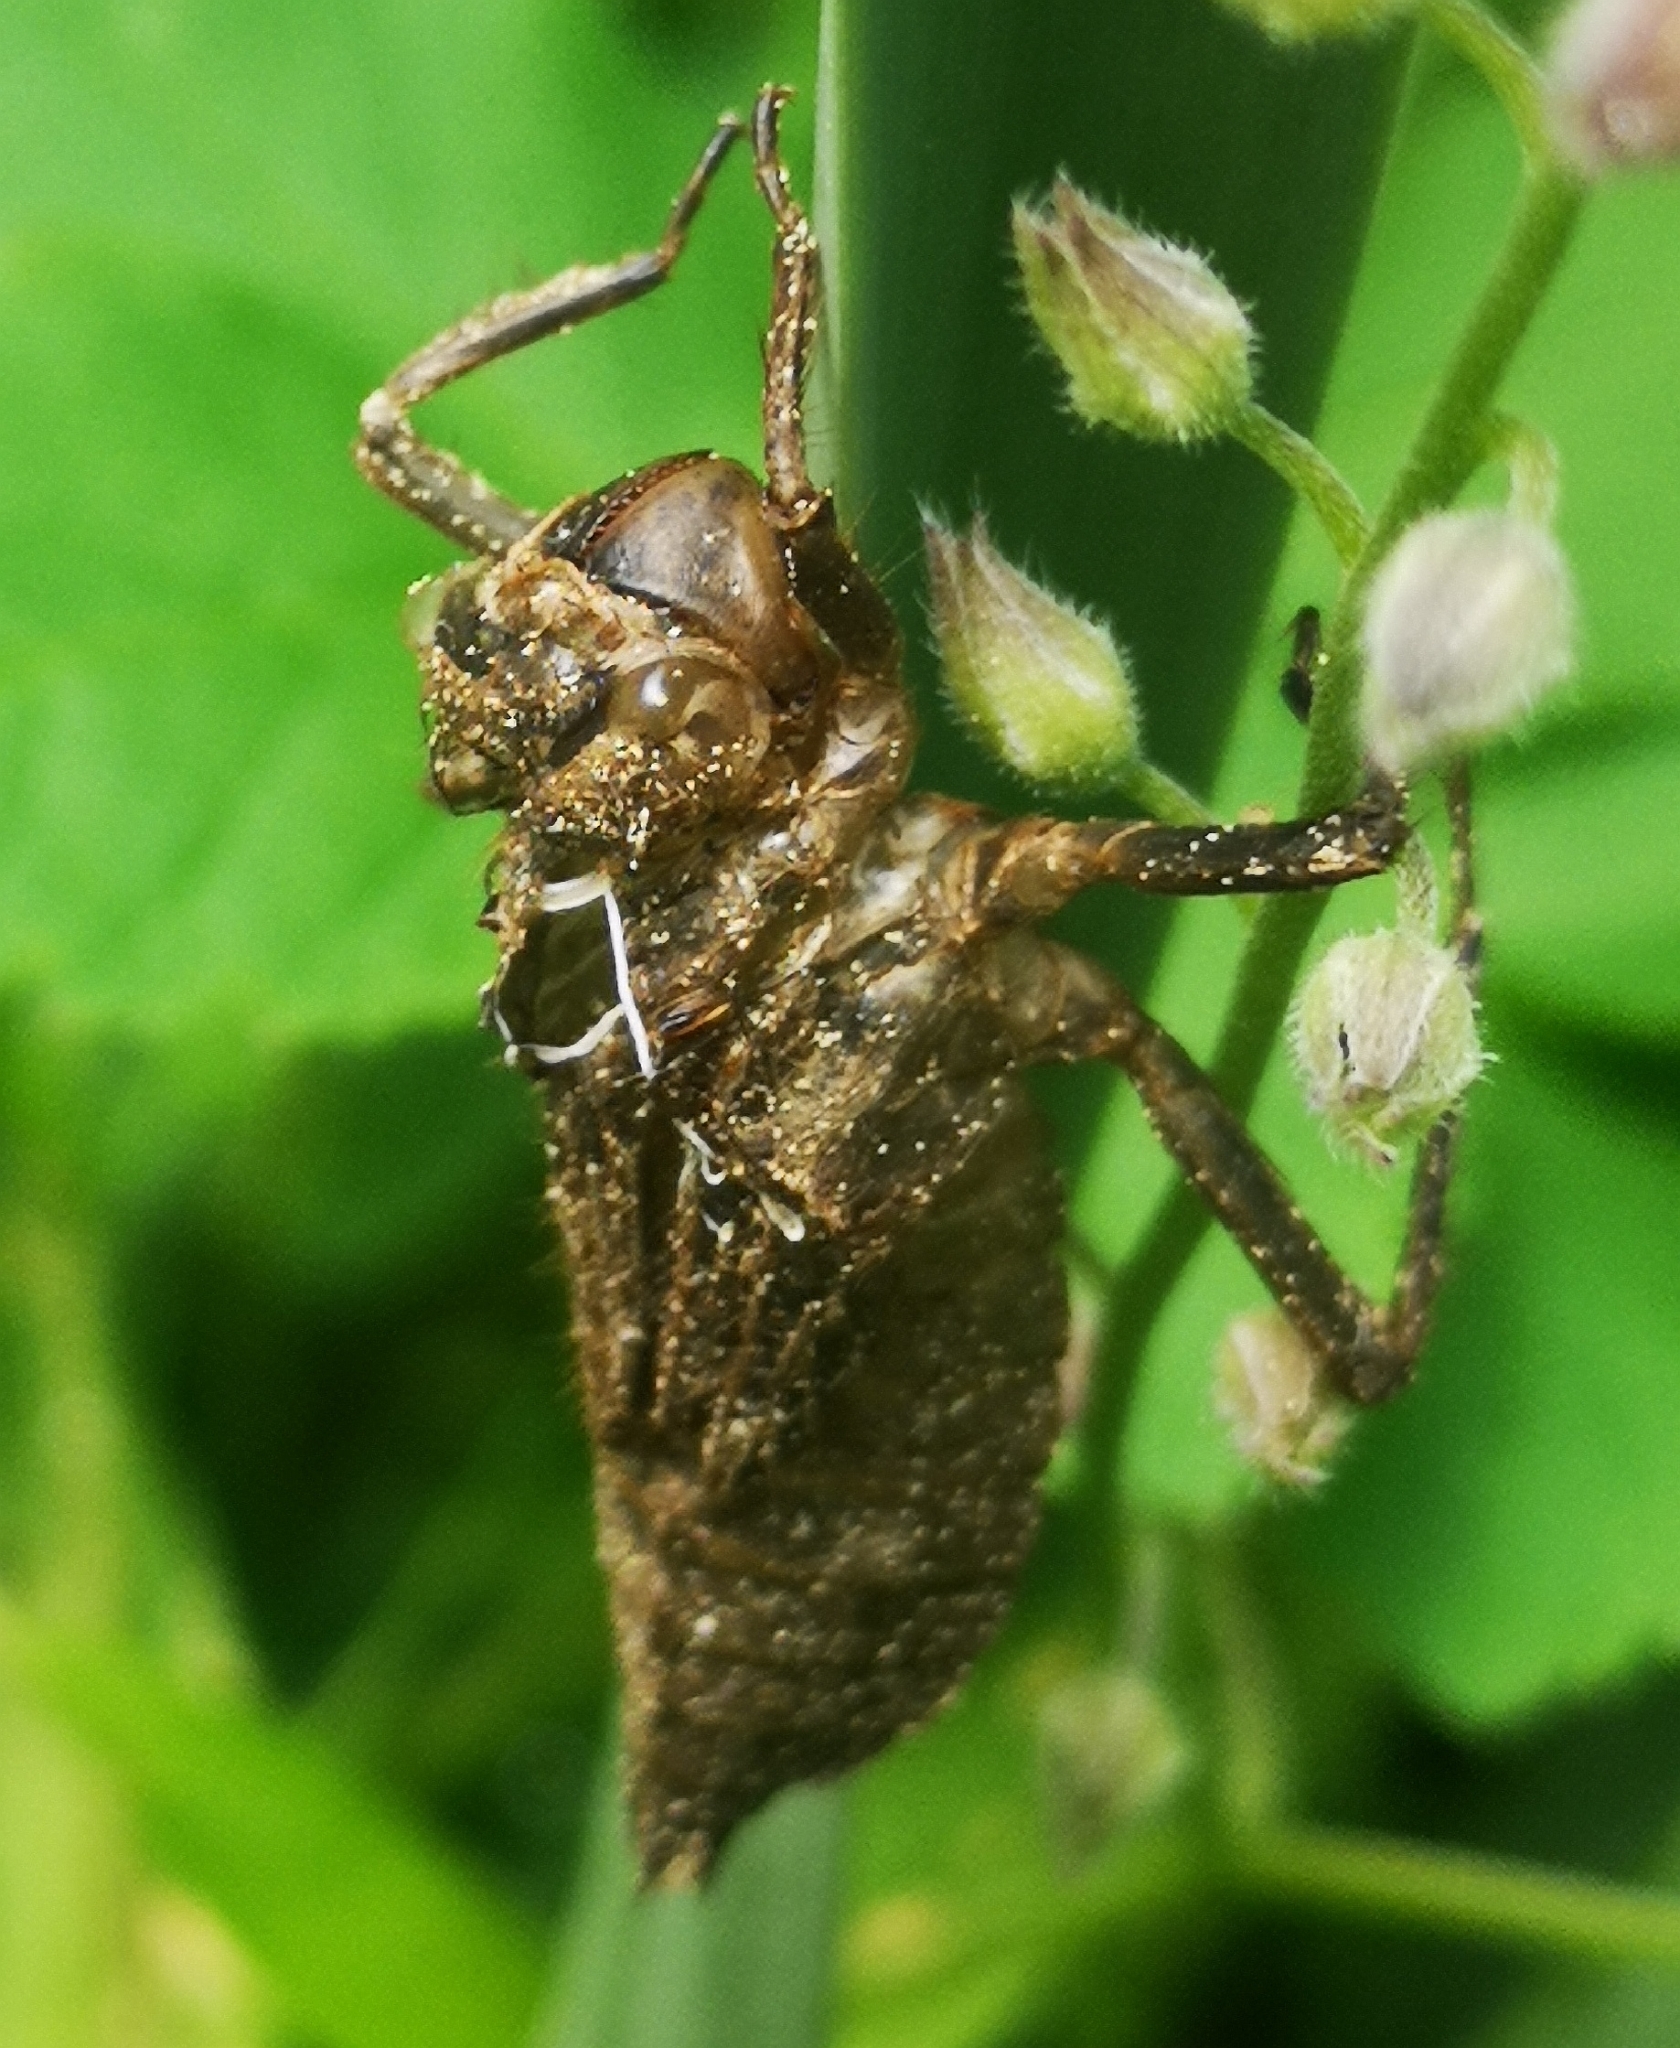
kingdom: Animalia
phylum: Arthropoda
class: Insecta
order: Odonata
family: Libellulidae
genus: Libellula
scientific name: Libellula quadrimaculata
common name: Four-spotted chaser
